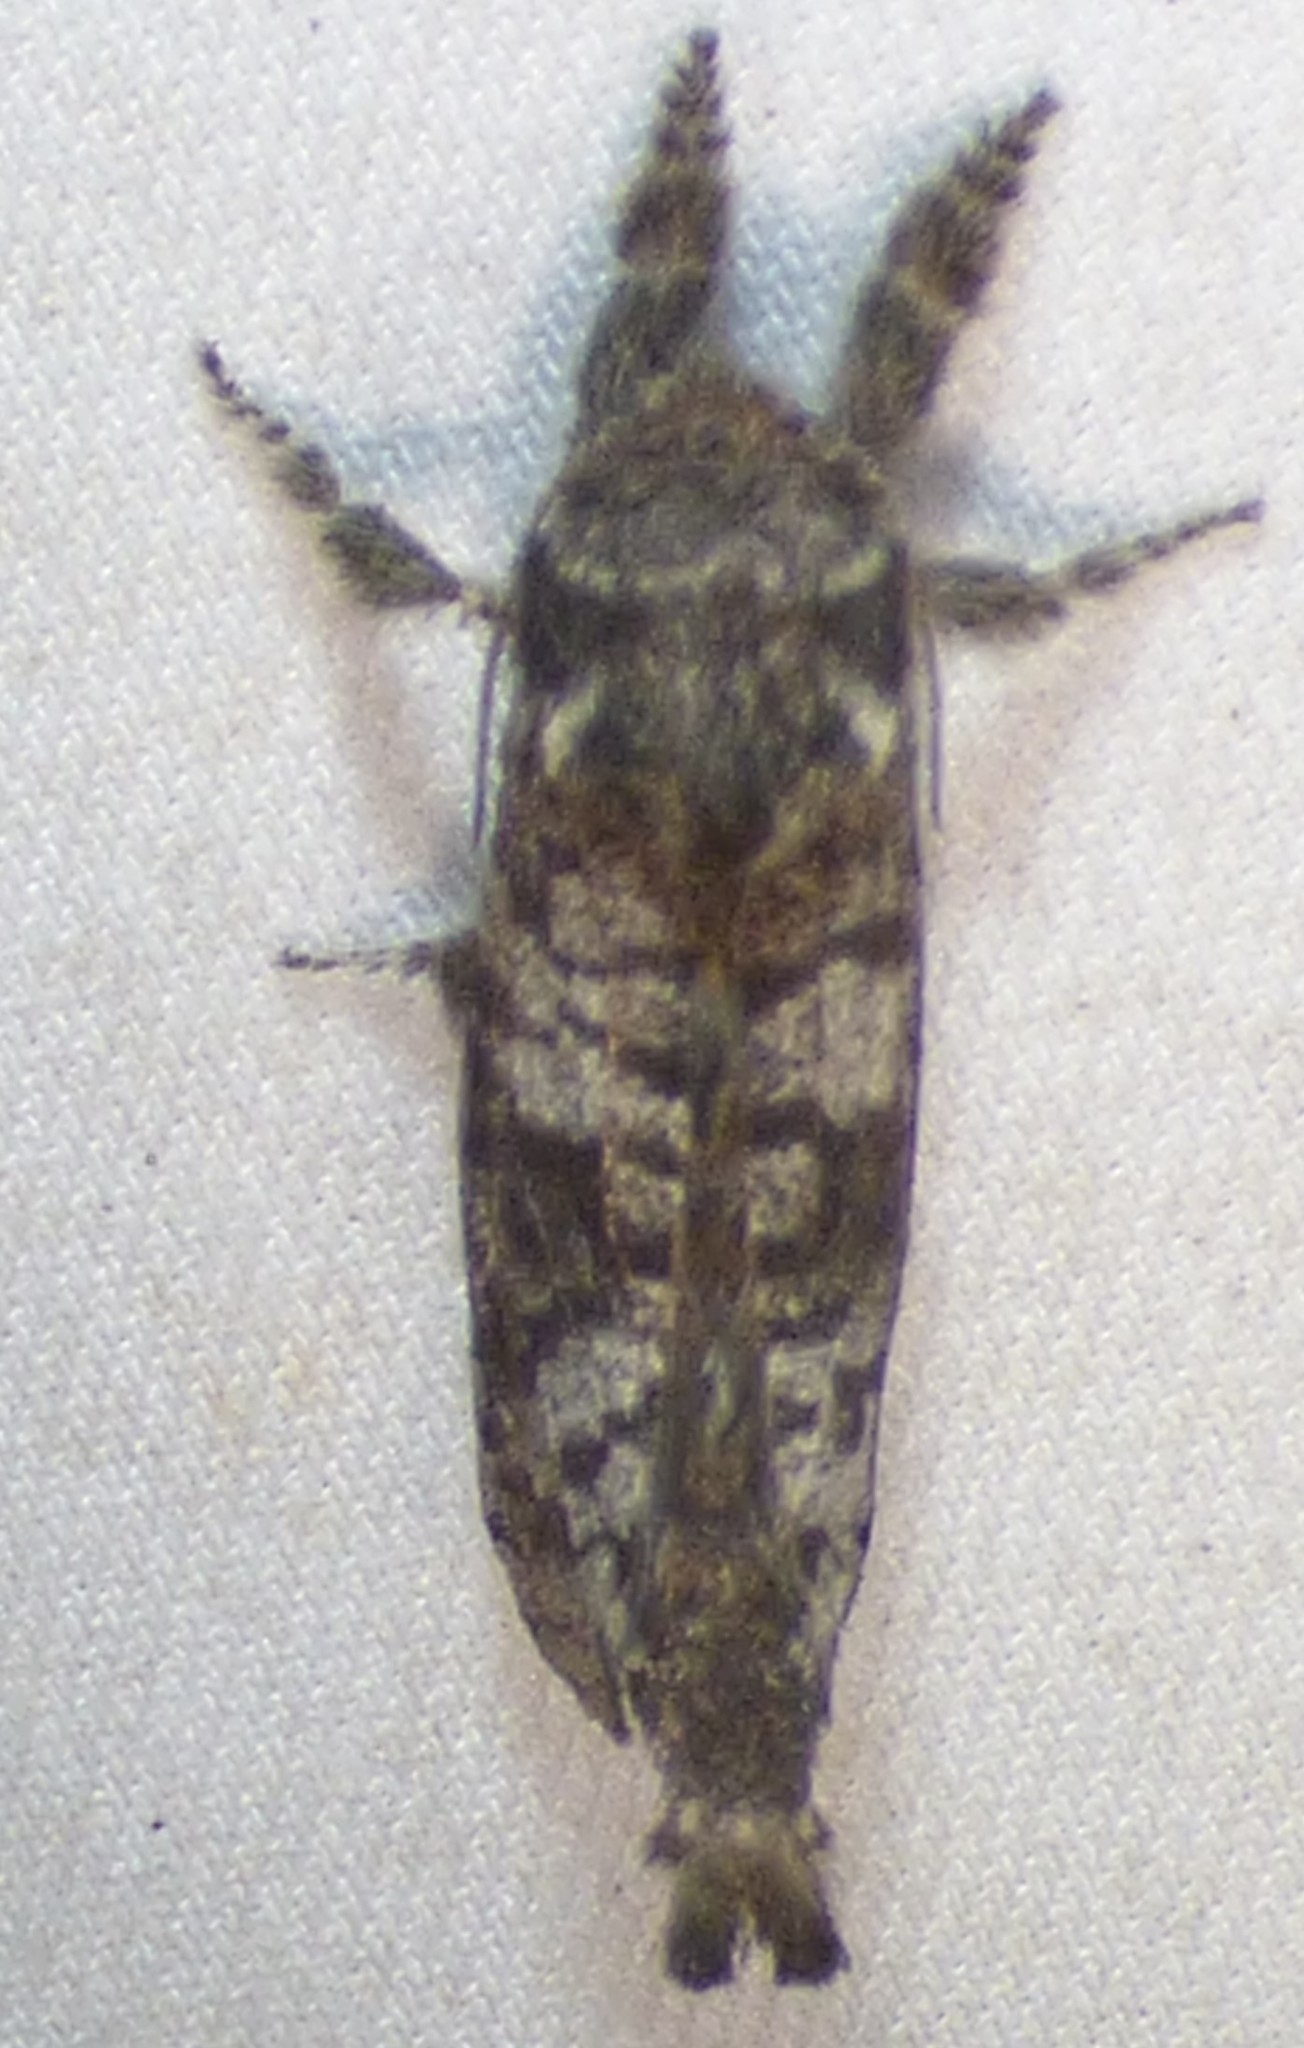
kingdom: Animalia
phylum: Arthropoda
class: Insecta
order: Lepidoptera
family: Cossidae
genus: Givira
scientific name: Givira francesca
